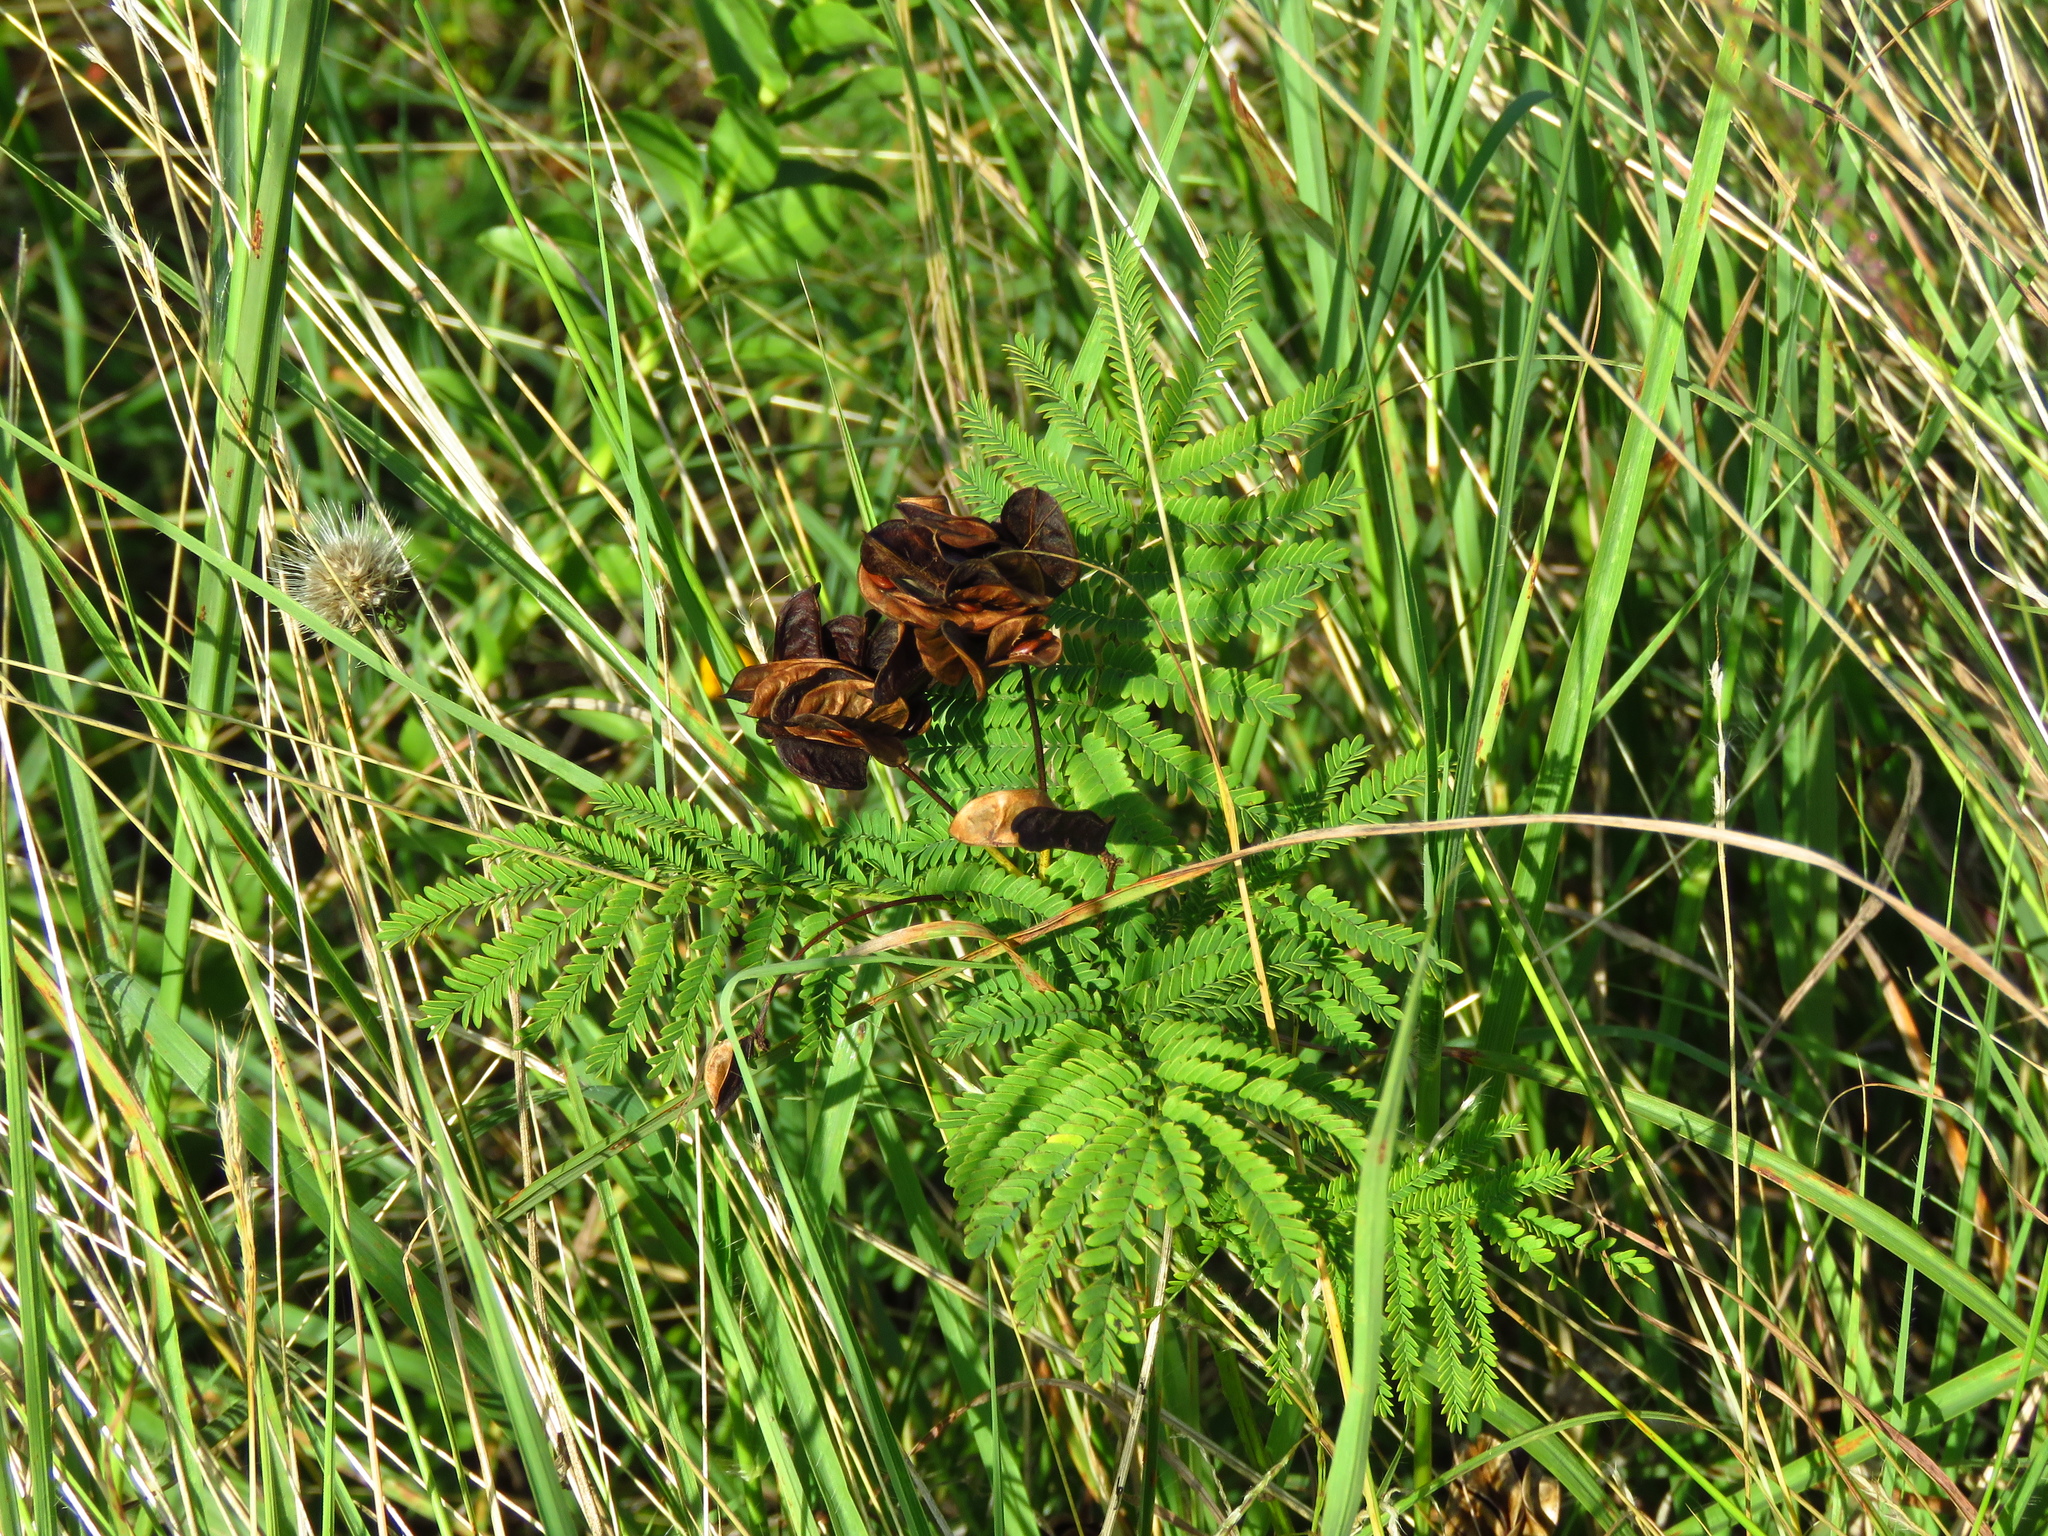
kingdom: Plantae
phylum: Tracheophyta
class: Magnoliopsida
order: Fabales
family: Fabaceae
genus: Desmanthus
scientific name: Desmanthus illinoensis
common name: Illinois bundle-flower
